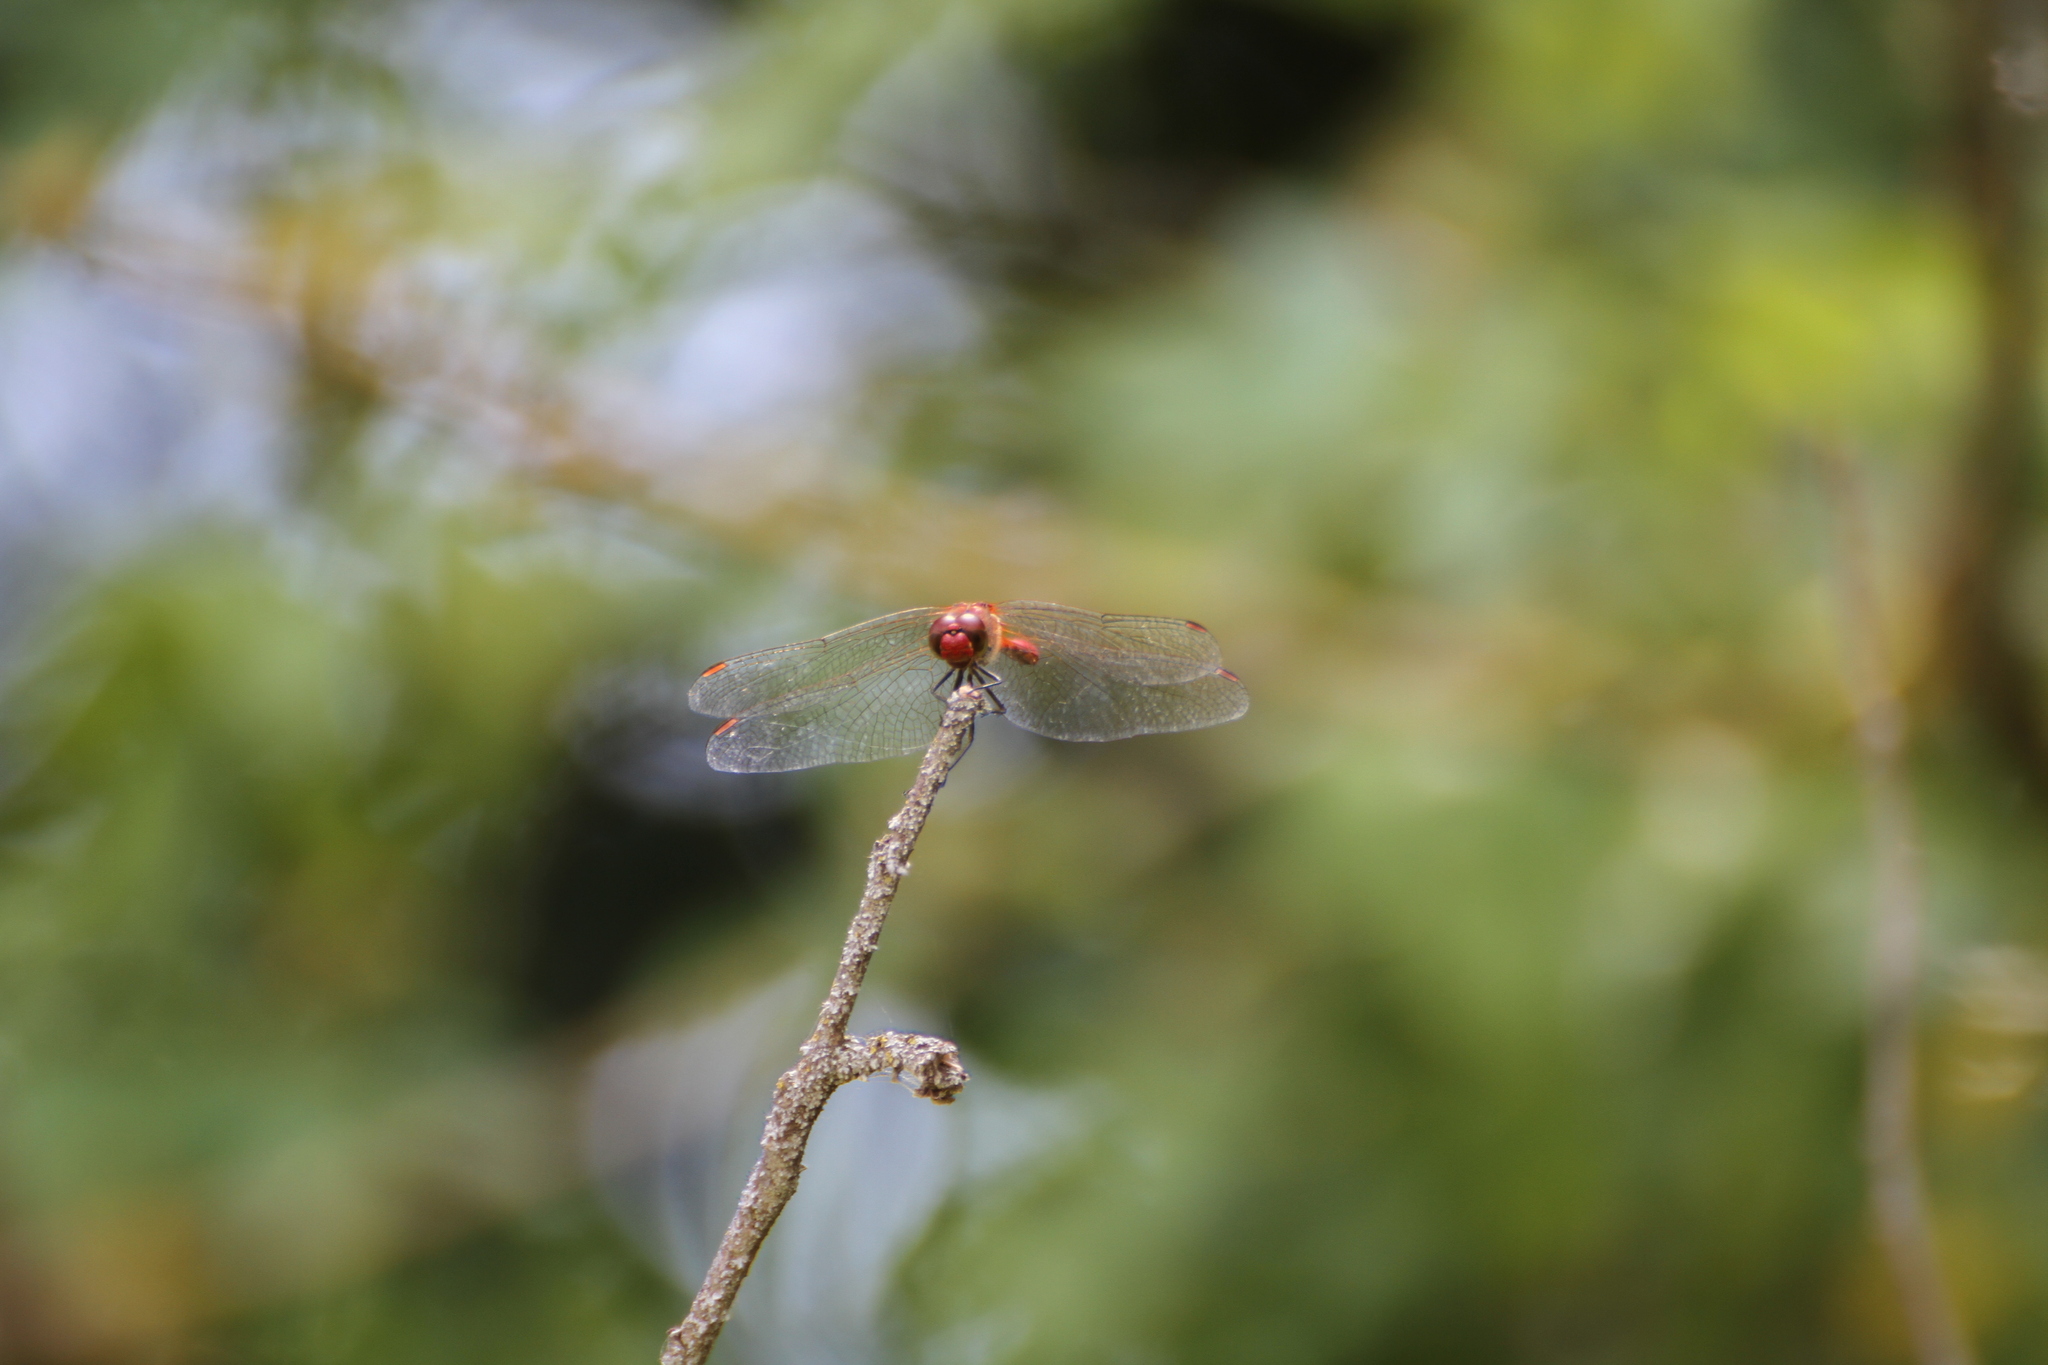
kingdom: Animalia
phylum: Arthropoda
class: Insecta
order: Odonata
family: Libellulidae
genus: Sympetrum
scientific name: Sympetrum sanguineum
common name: Ruddy darter
